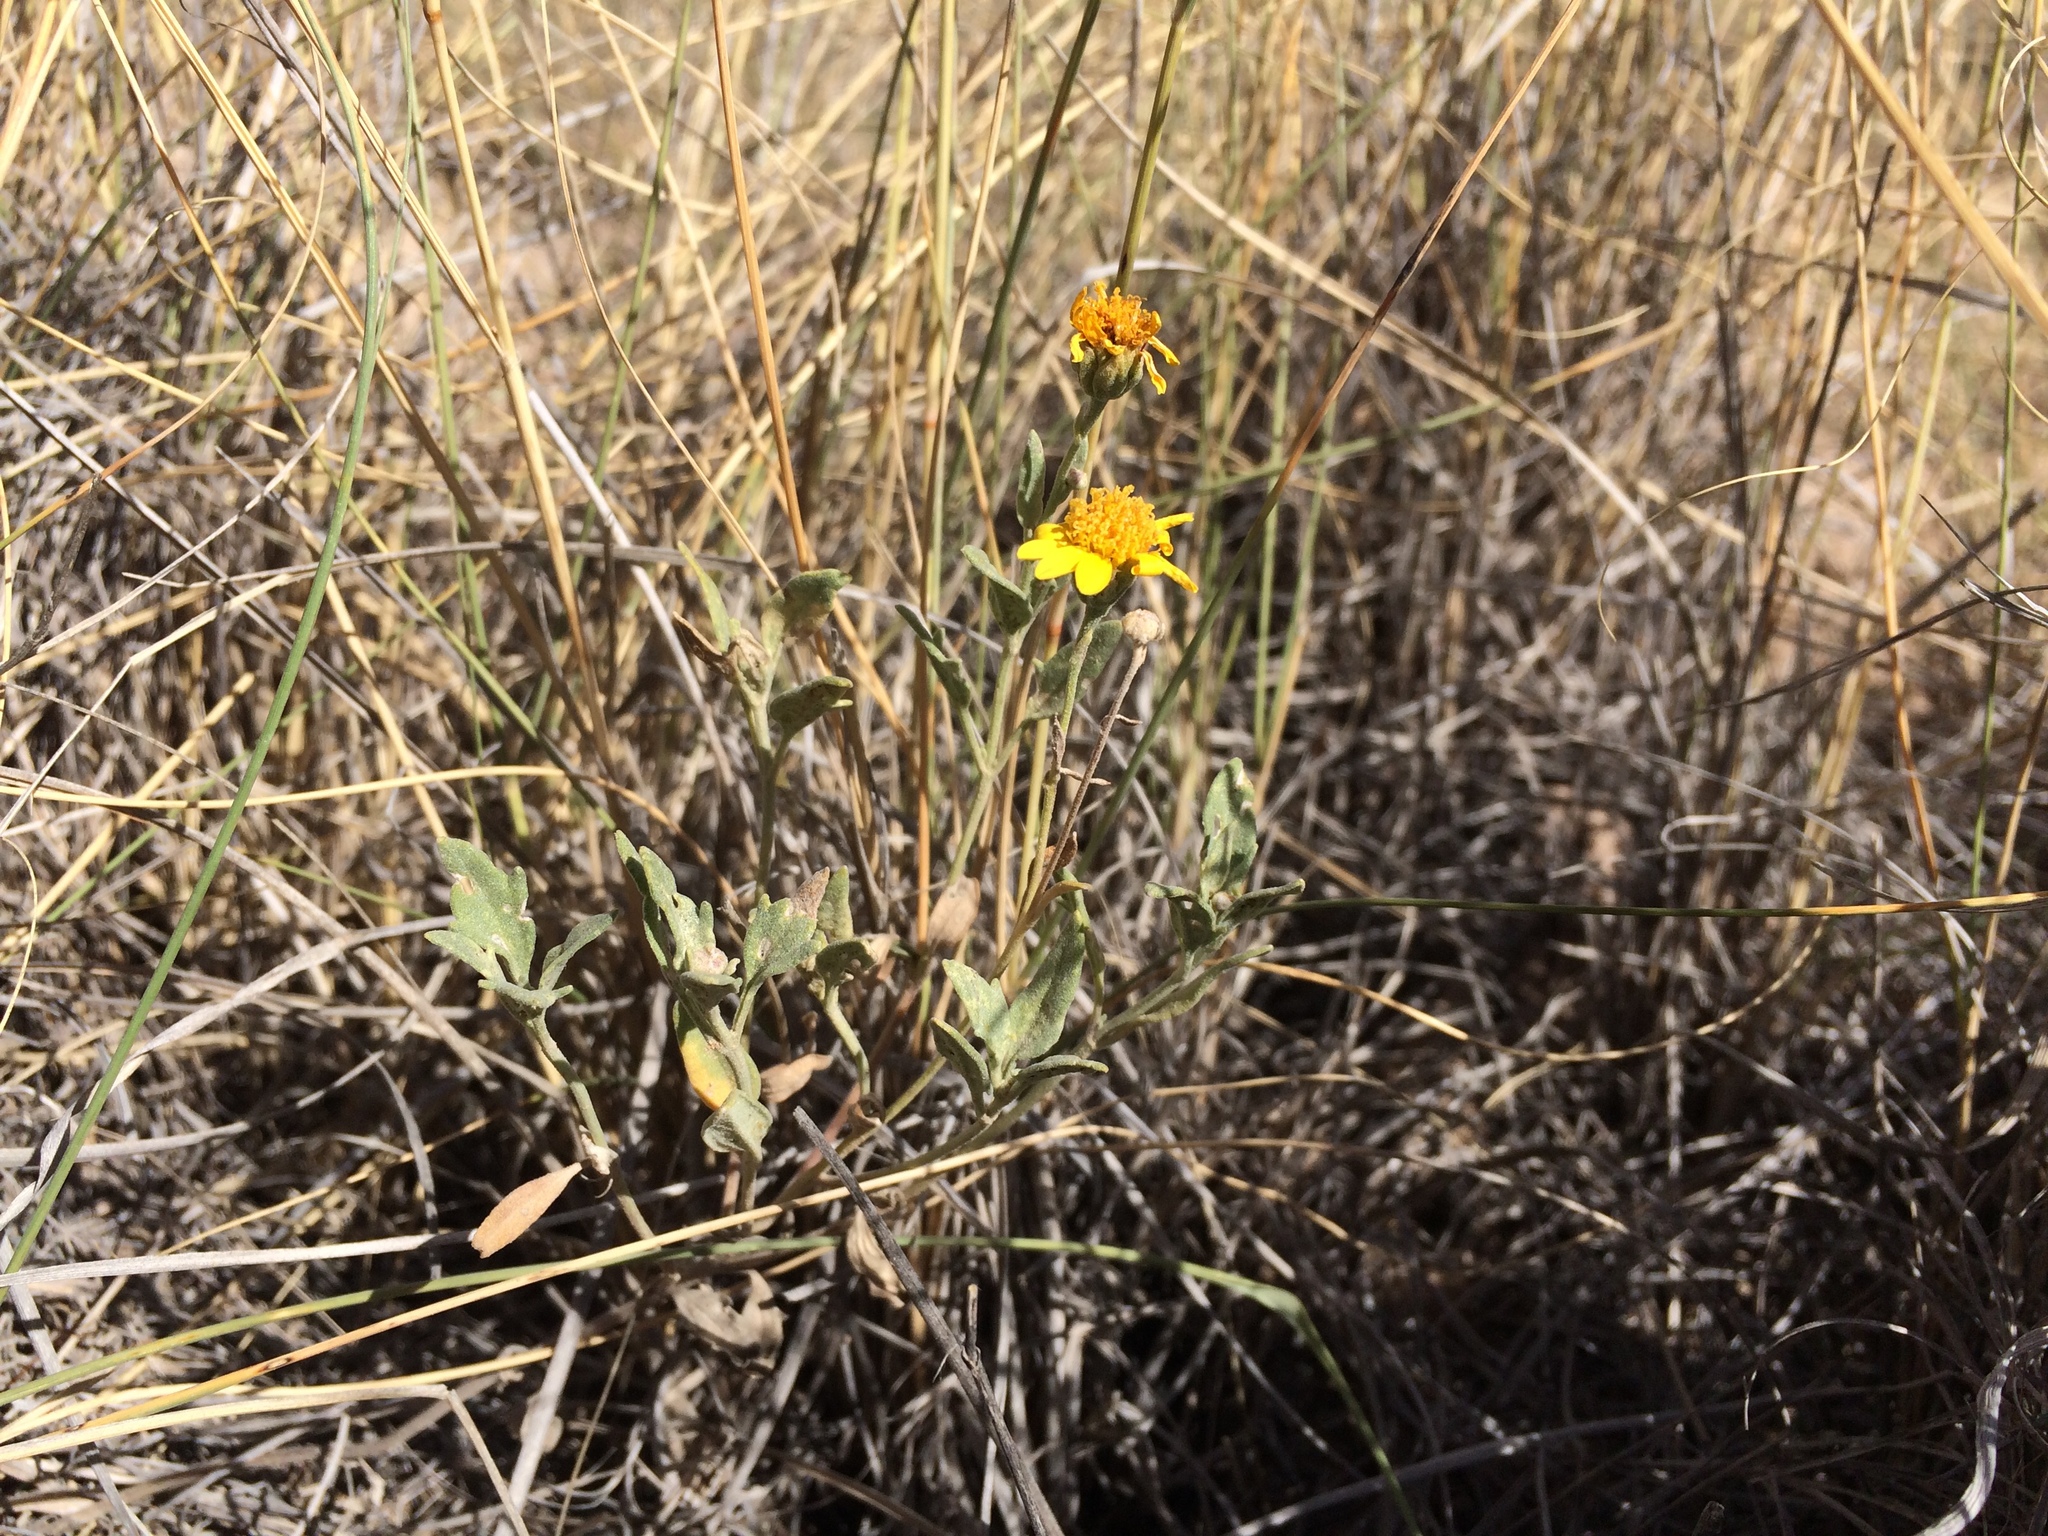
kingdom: Plantae
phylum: Tracheophyta
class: Magnoliopsida
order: Asterales
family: Asteraceae
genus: Picradeniopsis
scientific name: Picradeniopsis absinthifolia
